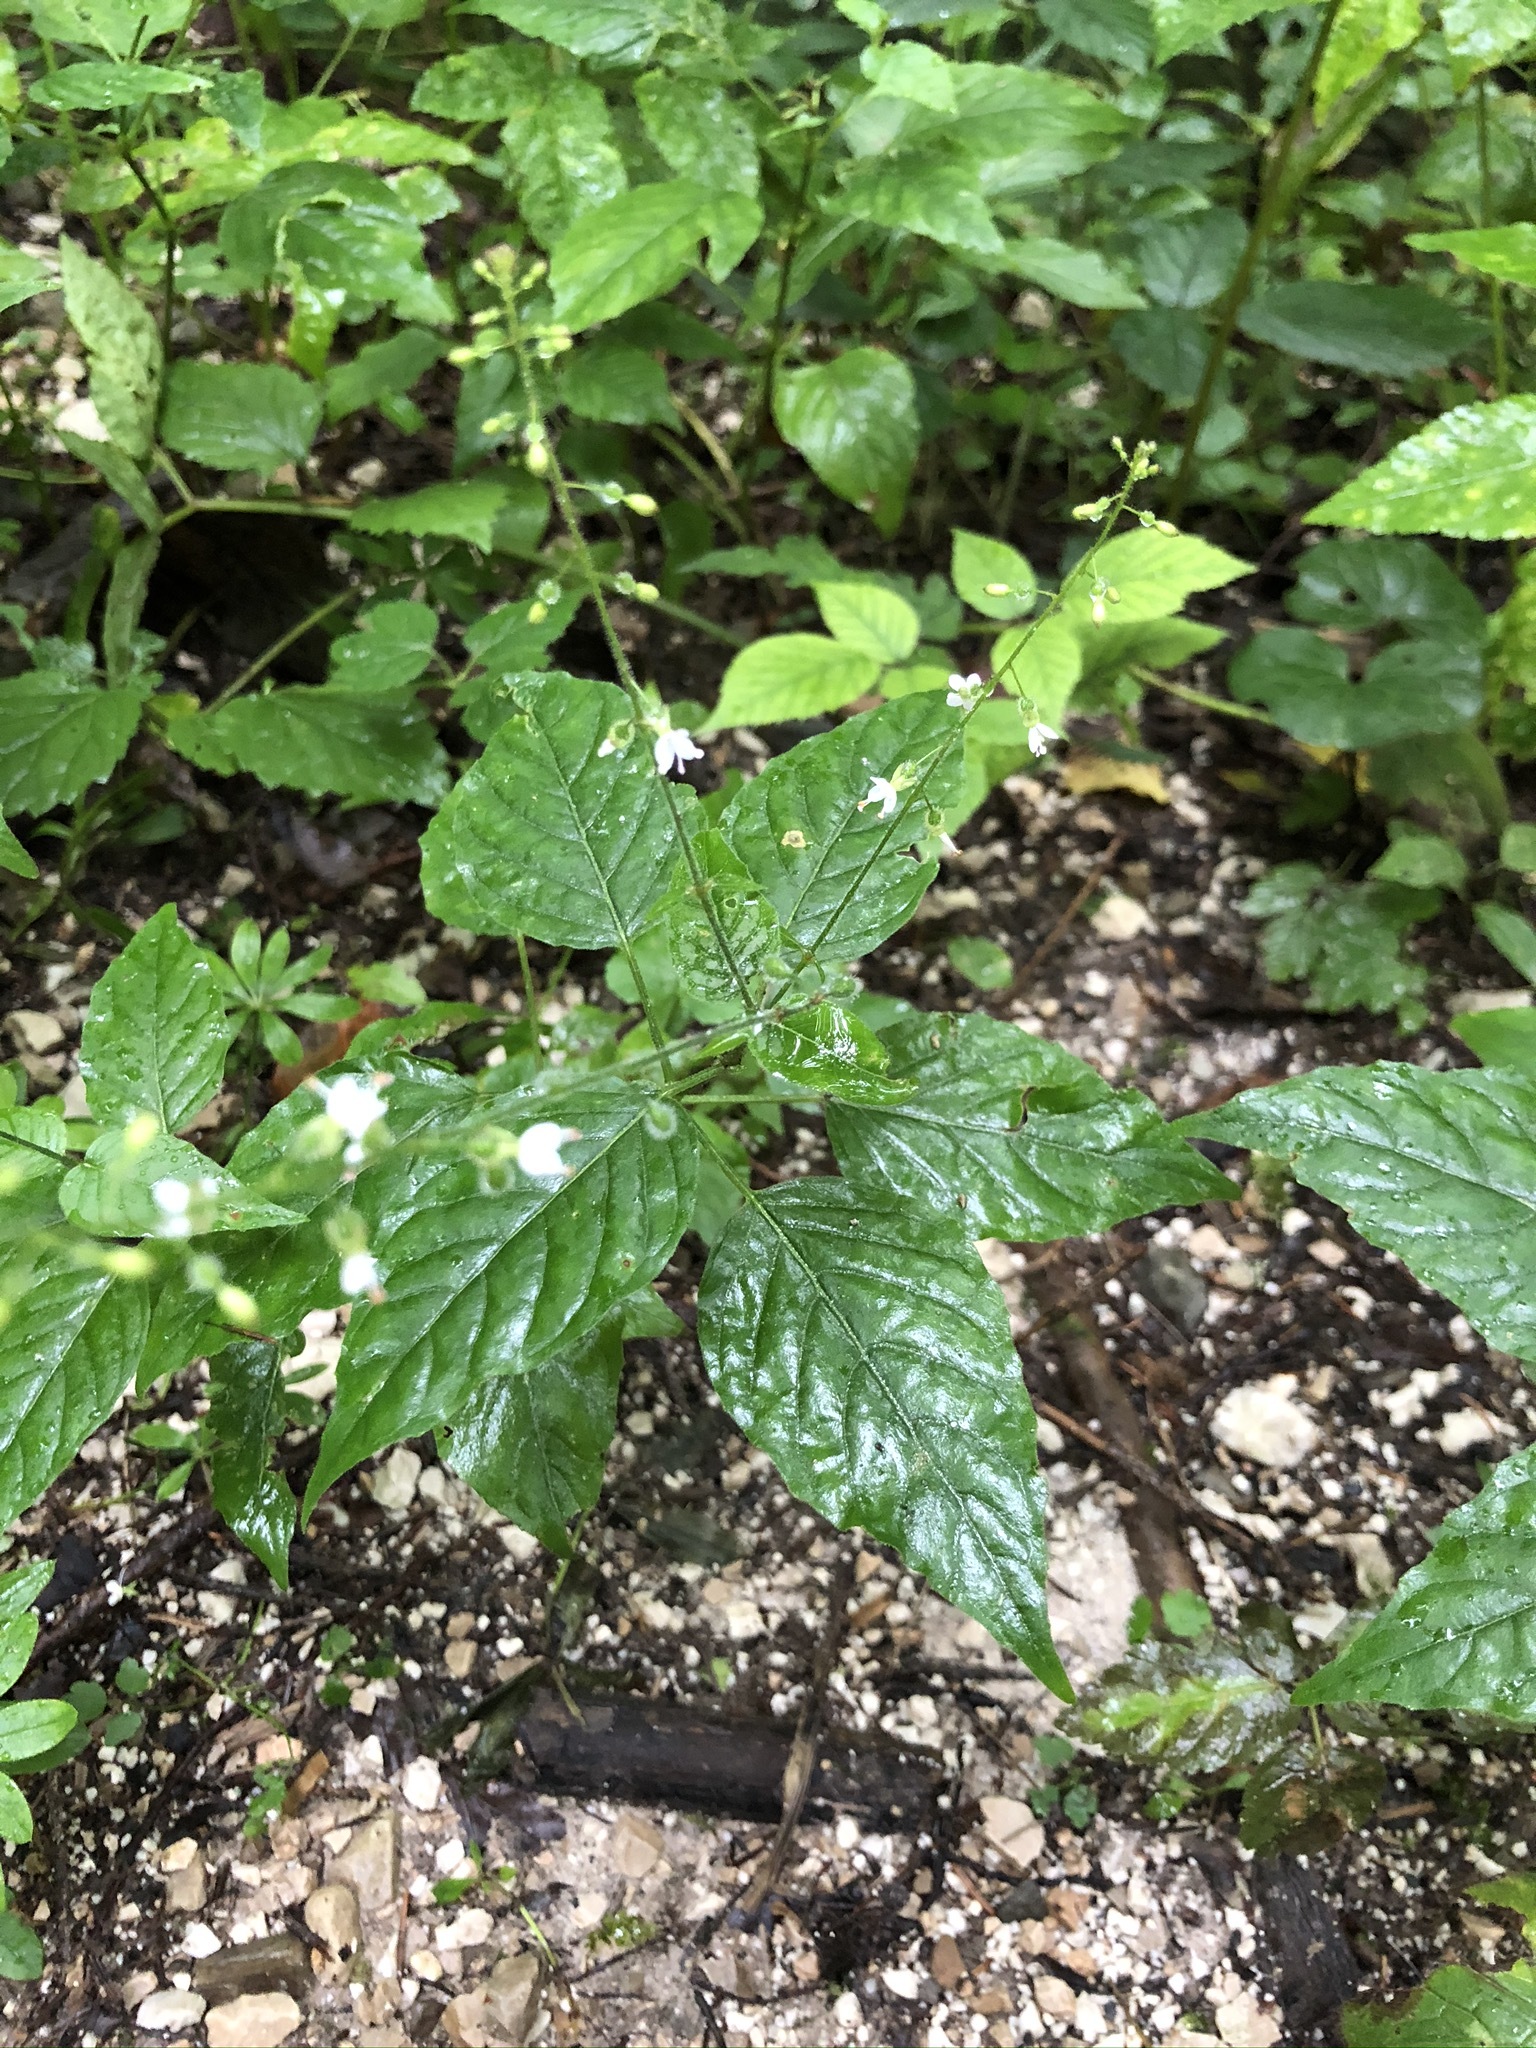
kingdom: Plantae
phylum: Tracheophyta
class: Magnoliopsida
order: Myrtales
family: Onagraceae
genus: Circaea
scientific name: Circaea lutetiana
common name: Enchanter's-nightshade
